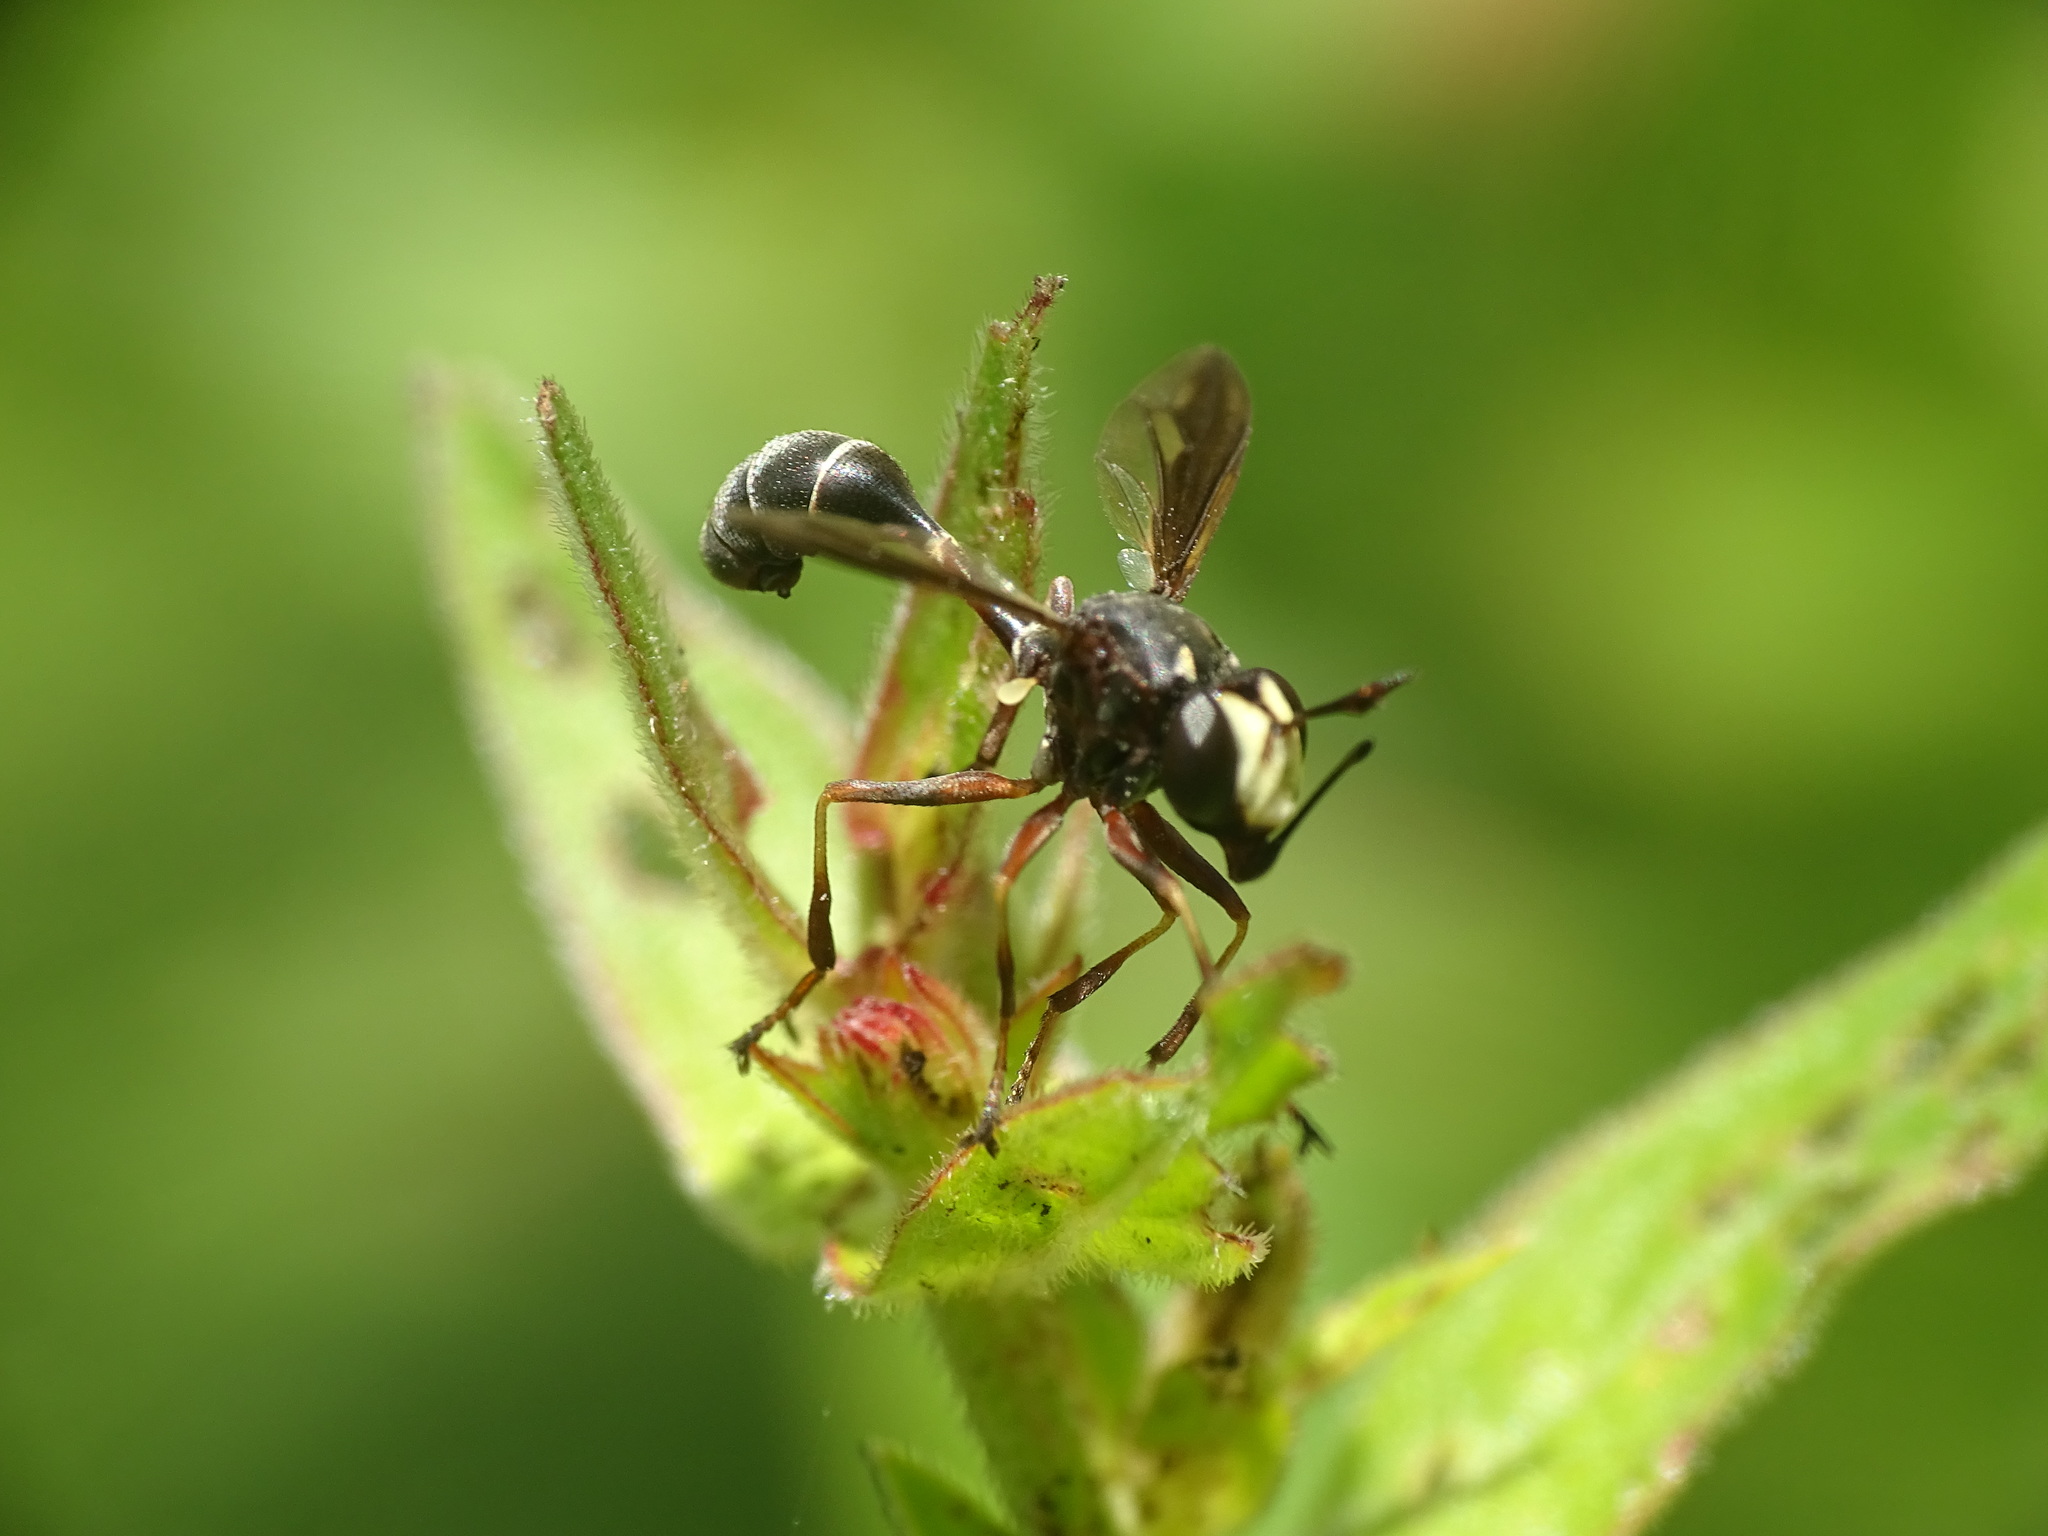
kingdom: Animalia
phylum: Arthropoda
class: Insecta
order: Diptera
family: Conopidae
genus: Physocephala
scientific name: Physocephala furcillata
